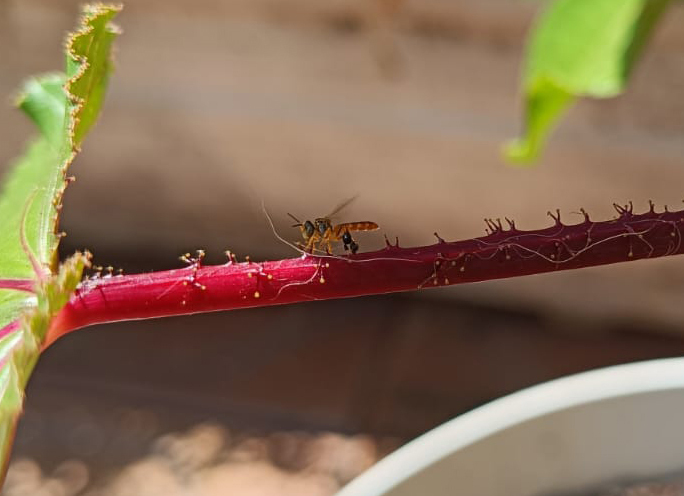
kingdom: Animalia
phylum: Arthropoda
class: Insecta
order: Hymenoptera
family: Apidae
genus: Tetragonisca
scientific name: Tetragonisca angustula
